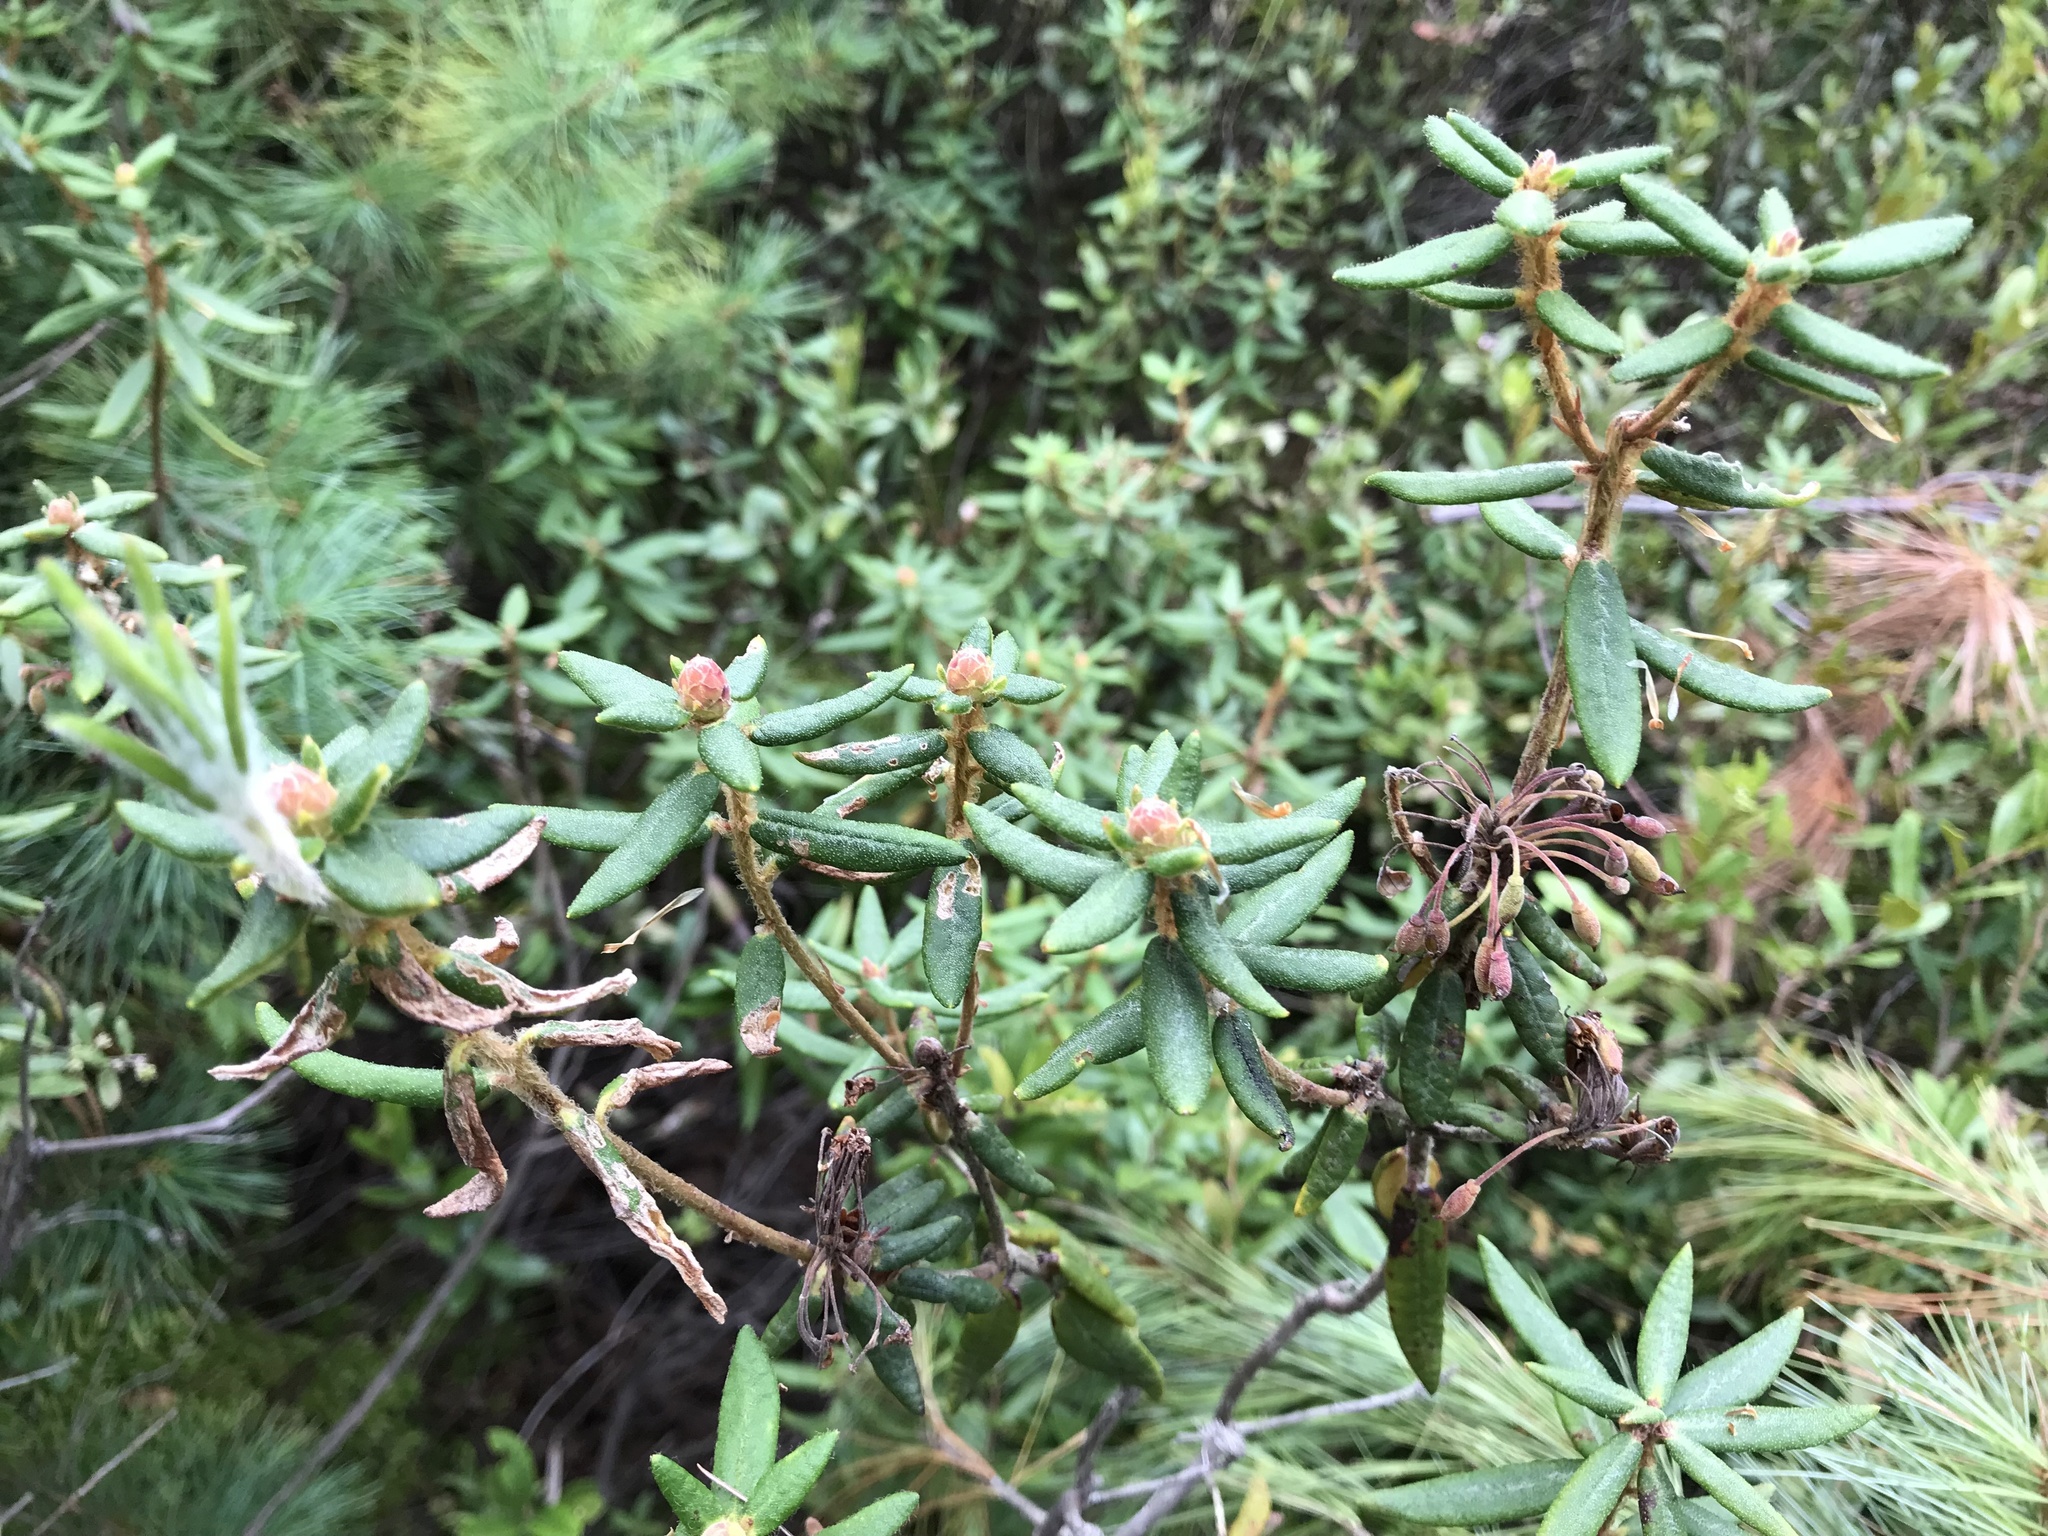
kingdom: Plantae
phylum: Tracheophyta
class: Magnoliopsida
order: Ericales
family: Ericaceae
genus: Rhododendron
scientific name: Rhododendron groenlandicum
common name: Bog labrador tea
